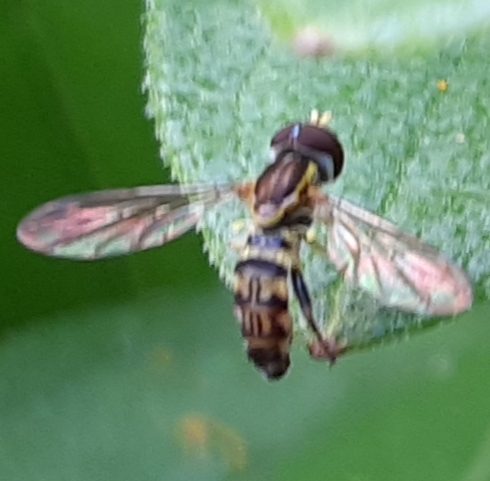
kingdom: Animalia
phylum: Arthropoda
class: Insecta
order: Diptera
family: Syrphidae
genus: Toxomerus
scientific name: Toxomerus geminatus
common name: Eastern calligrapher
